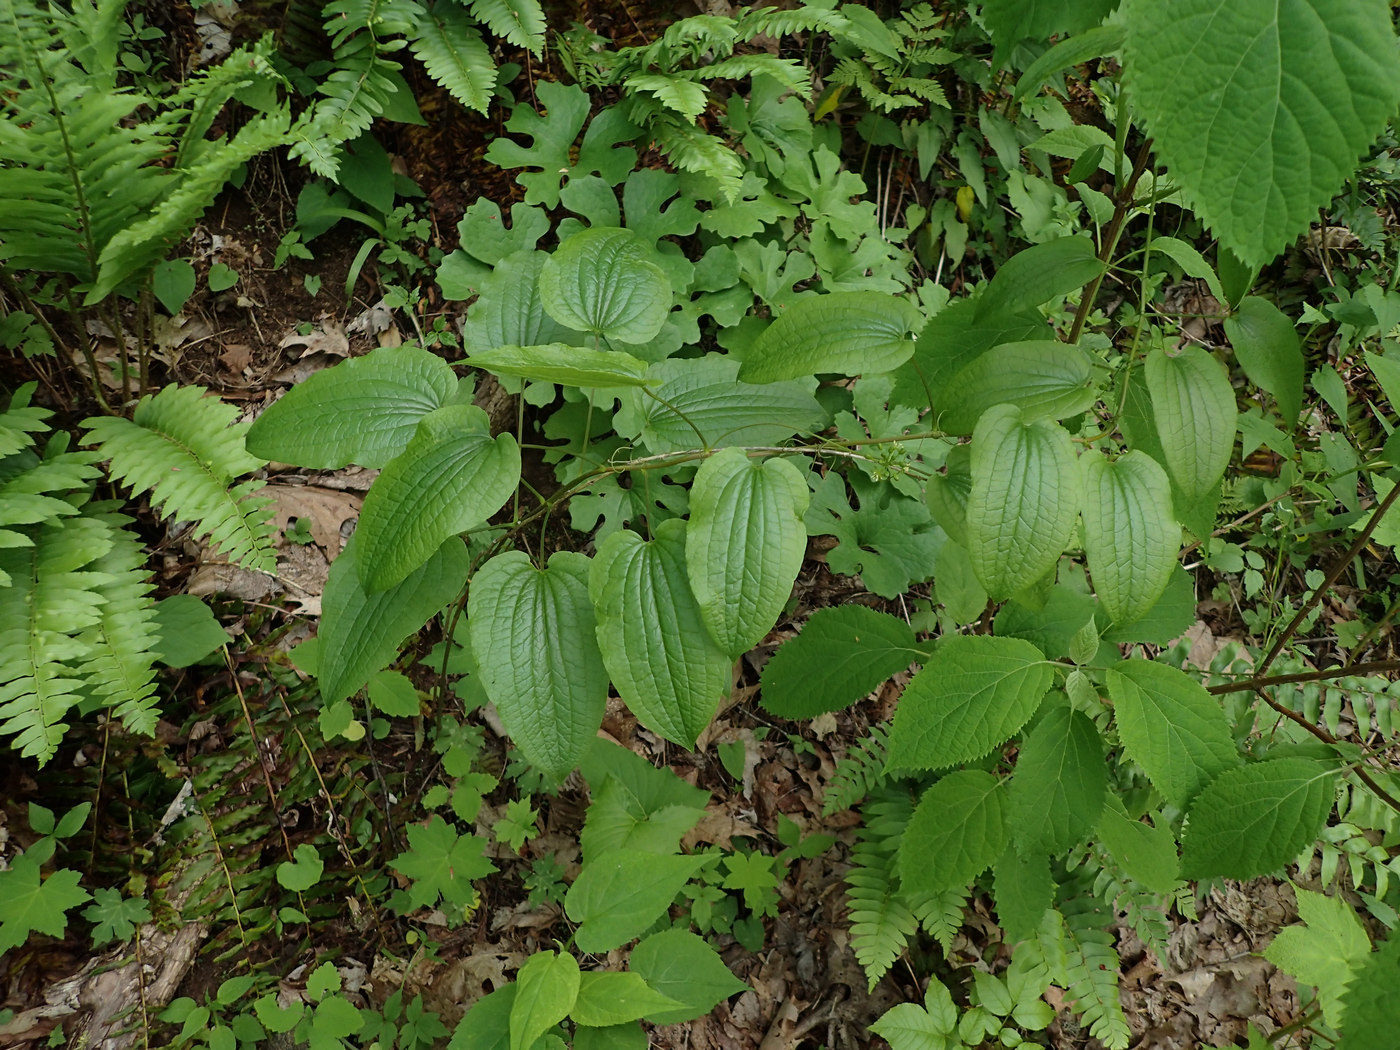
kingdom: Plantae
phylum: Tracheophyta
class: Liliopsida
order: Liliales
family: Smilacaceae
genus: Smilax
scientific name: Smilax pulverulenta
